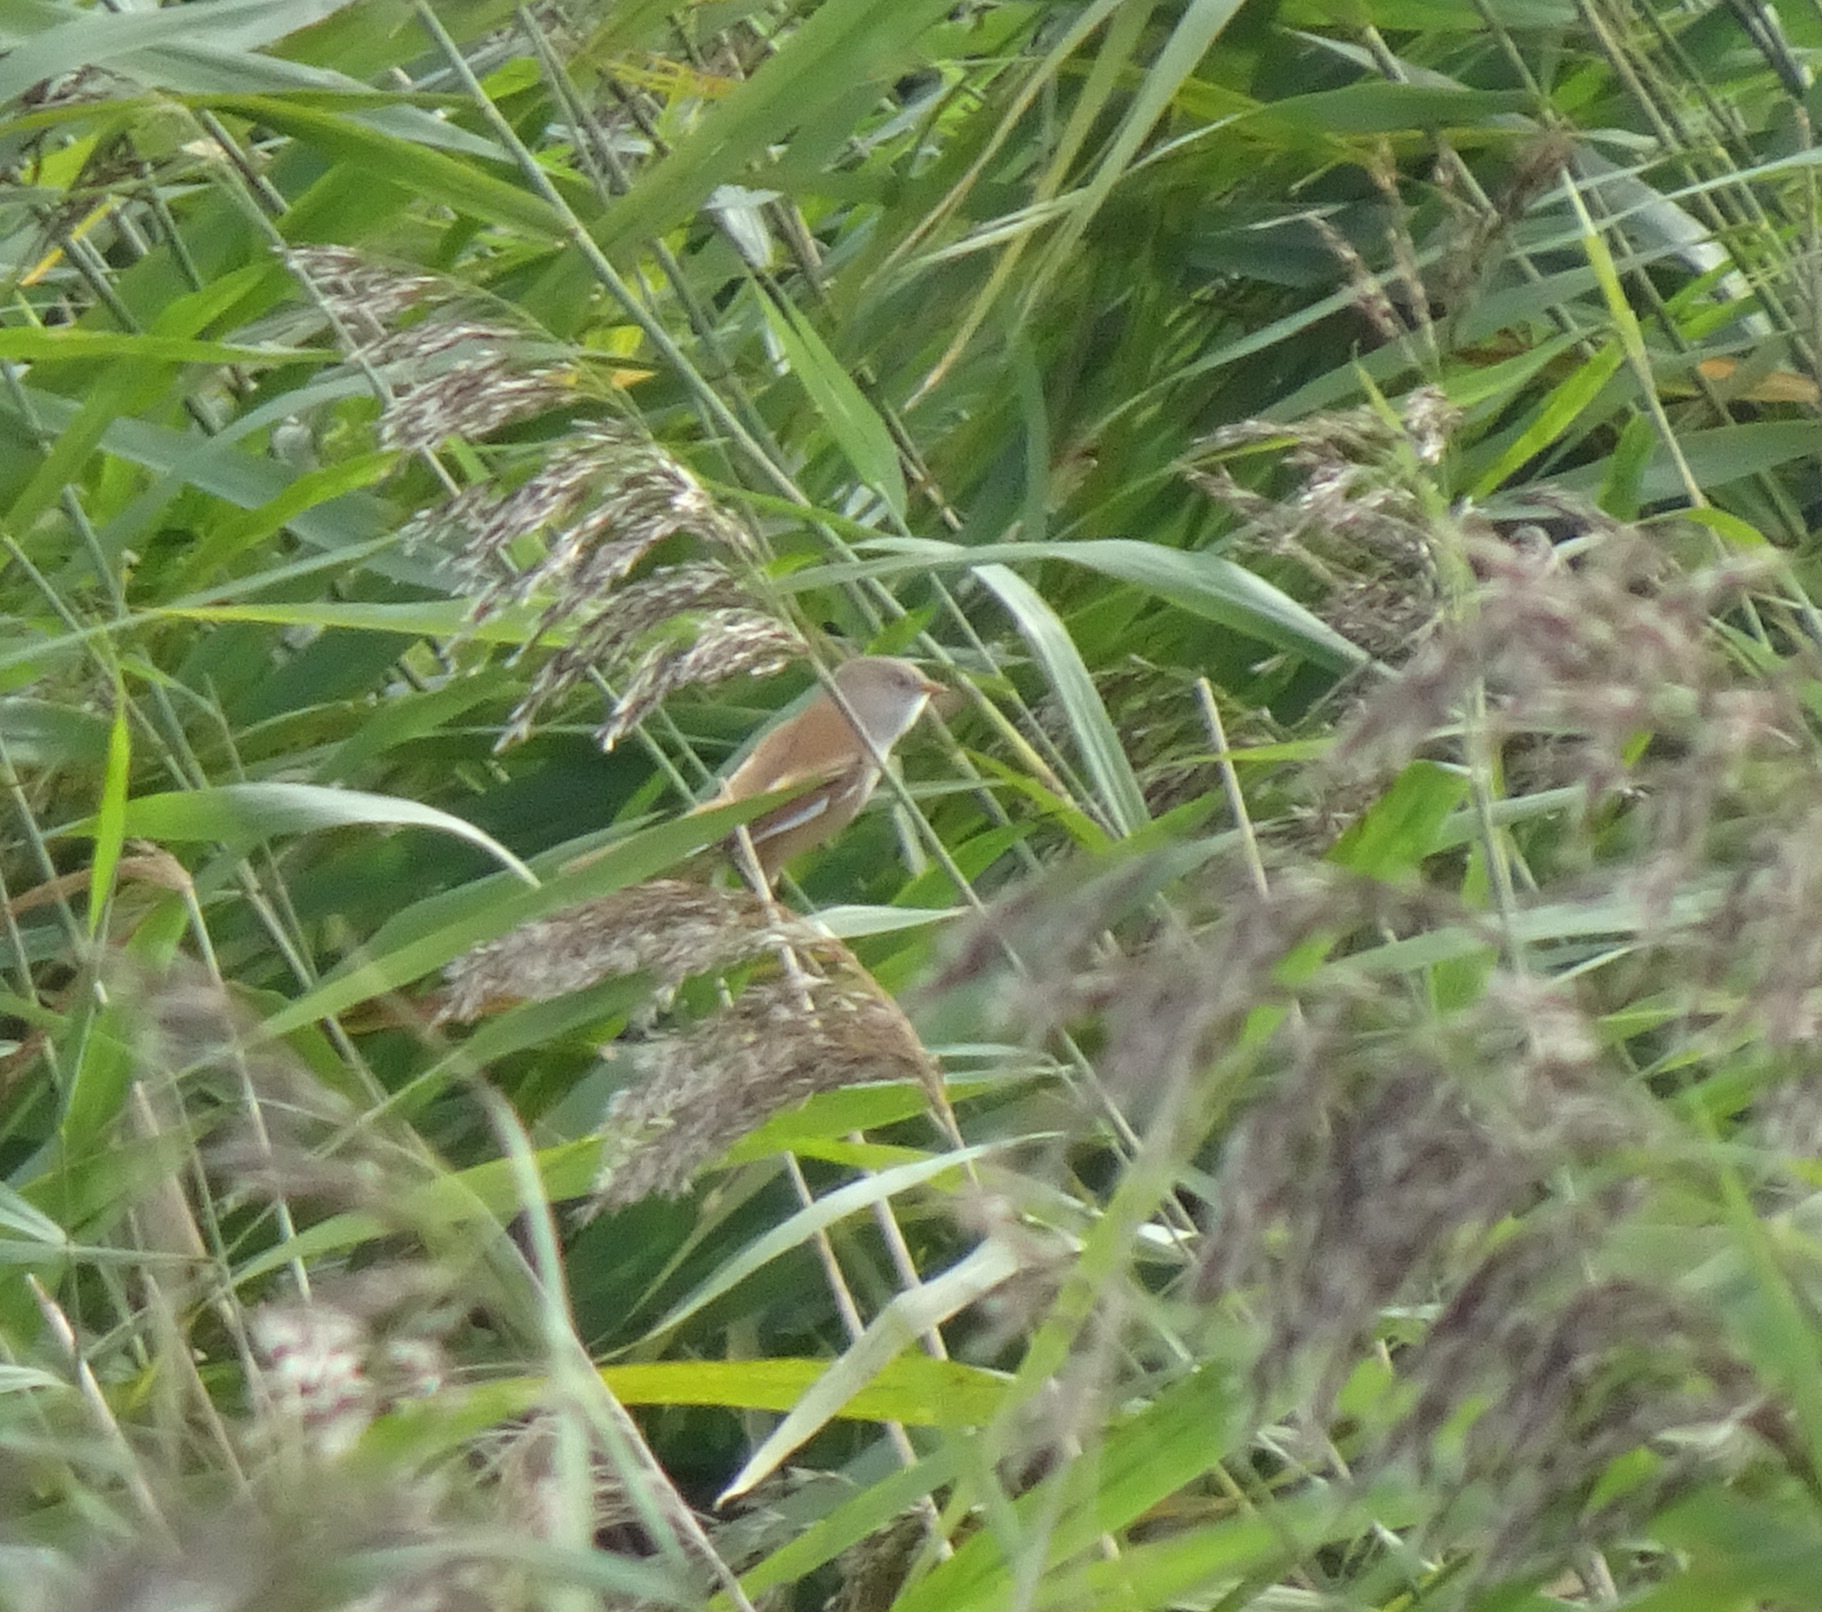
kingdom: Animalia
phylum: Chordata
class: Aves
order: Passeriformes
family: Panuridae
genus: Panurus
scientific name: Panurus biarmicus
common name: Bearded reedling
